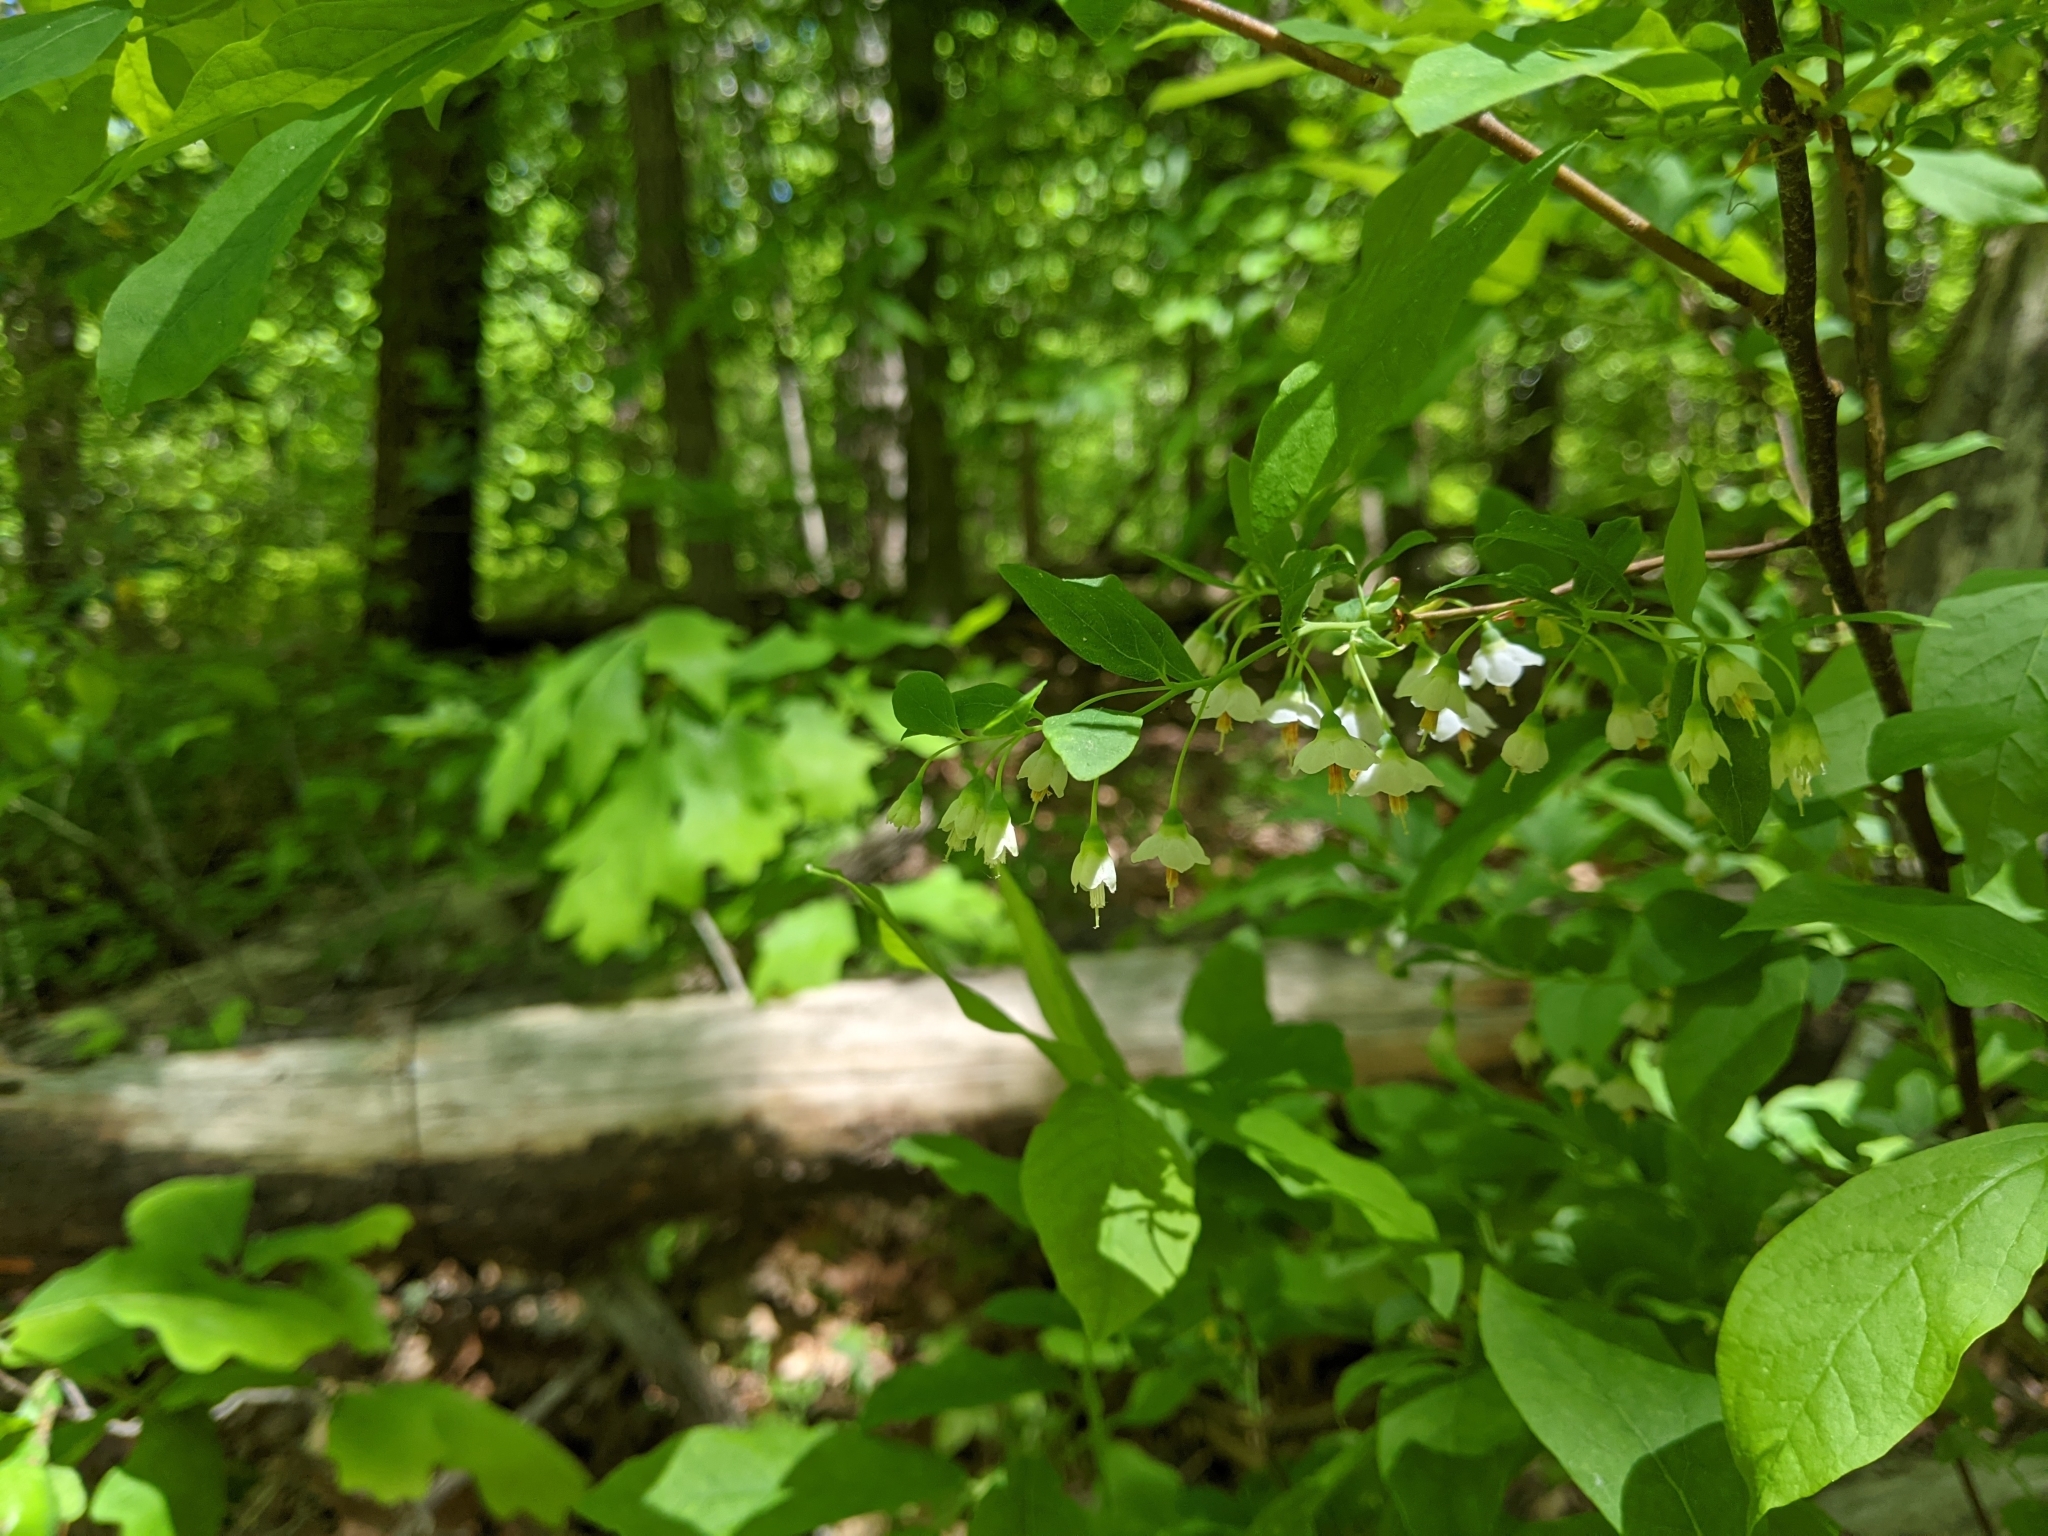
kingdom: Plantae
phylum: Tracheophyta
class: Magnoliopsida
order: Ericales
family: Ericaceae
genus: Vaccinium
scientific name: Vaccinium stamineum
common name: Deerberry
